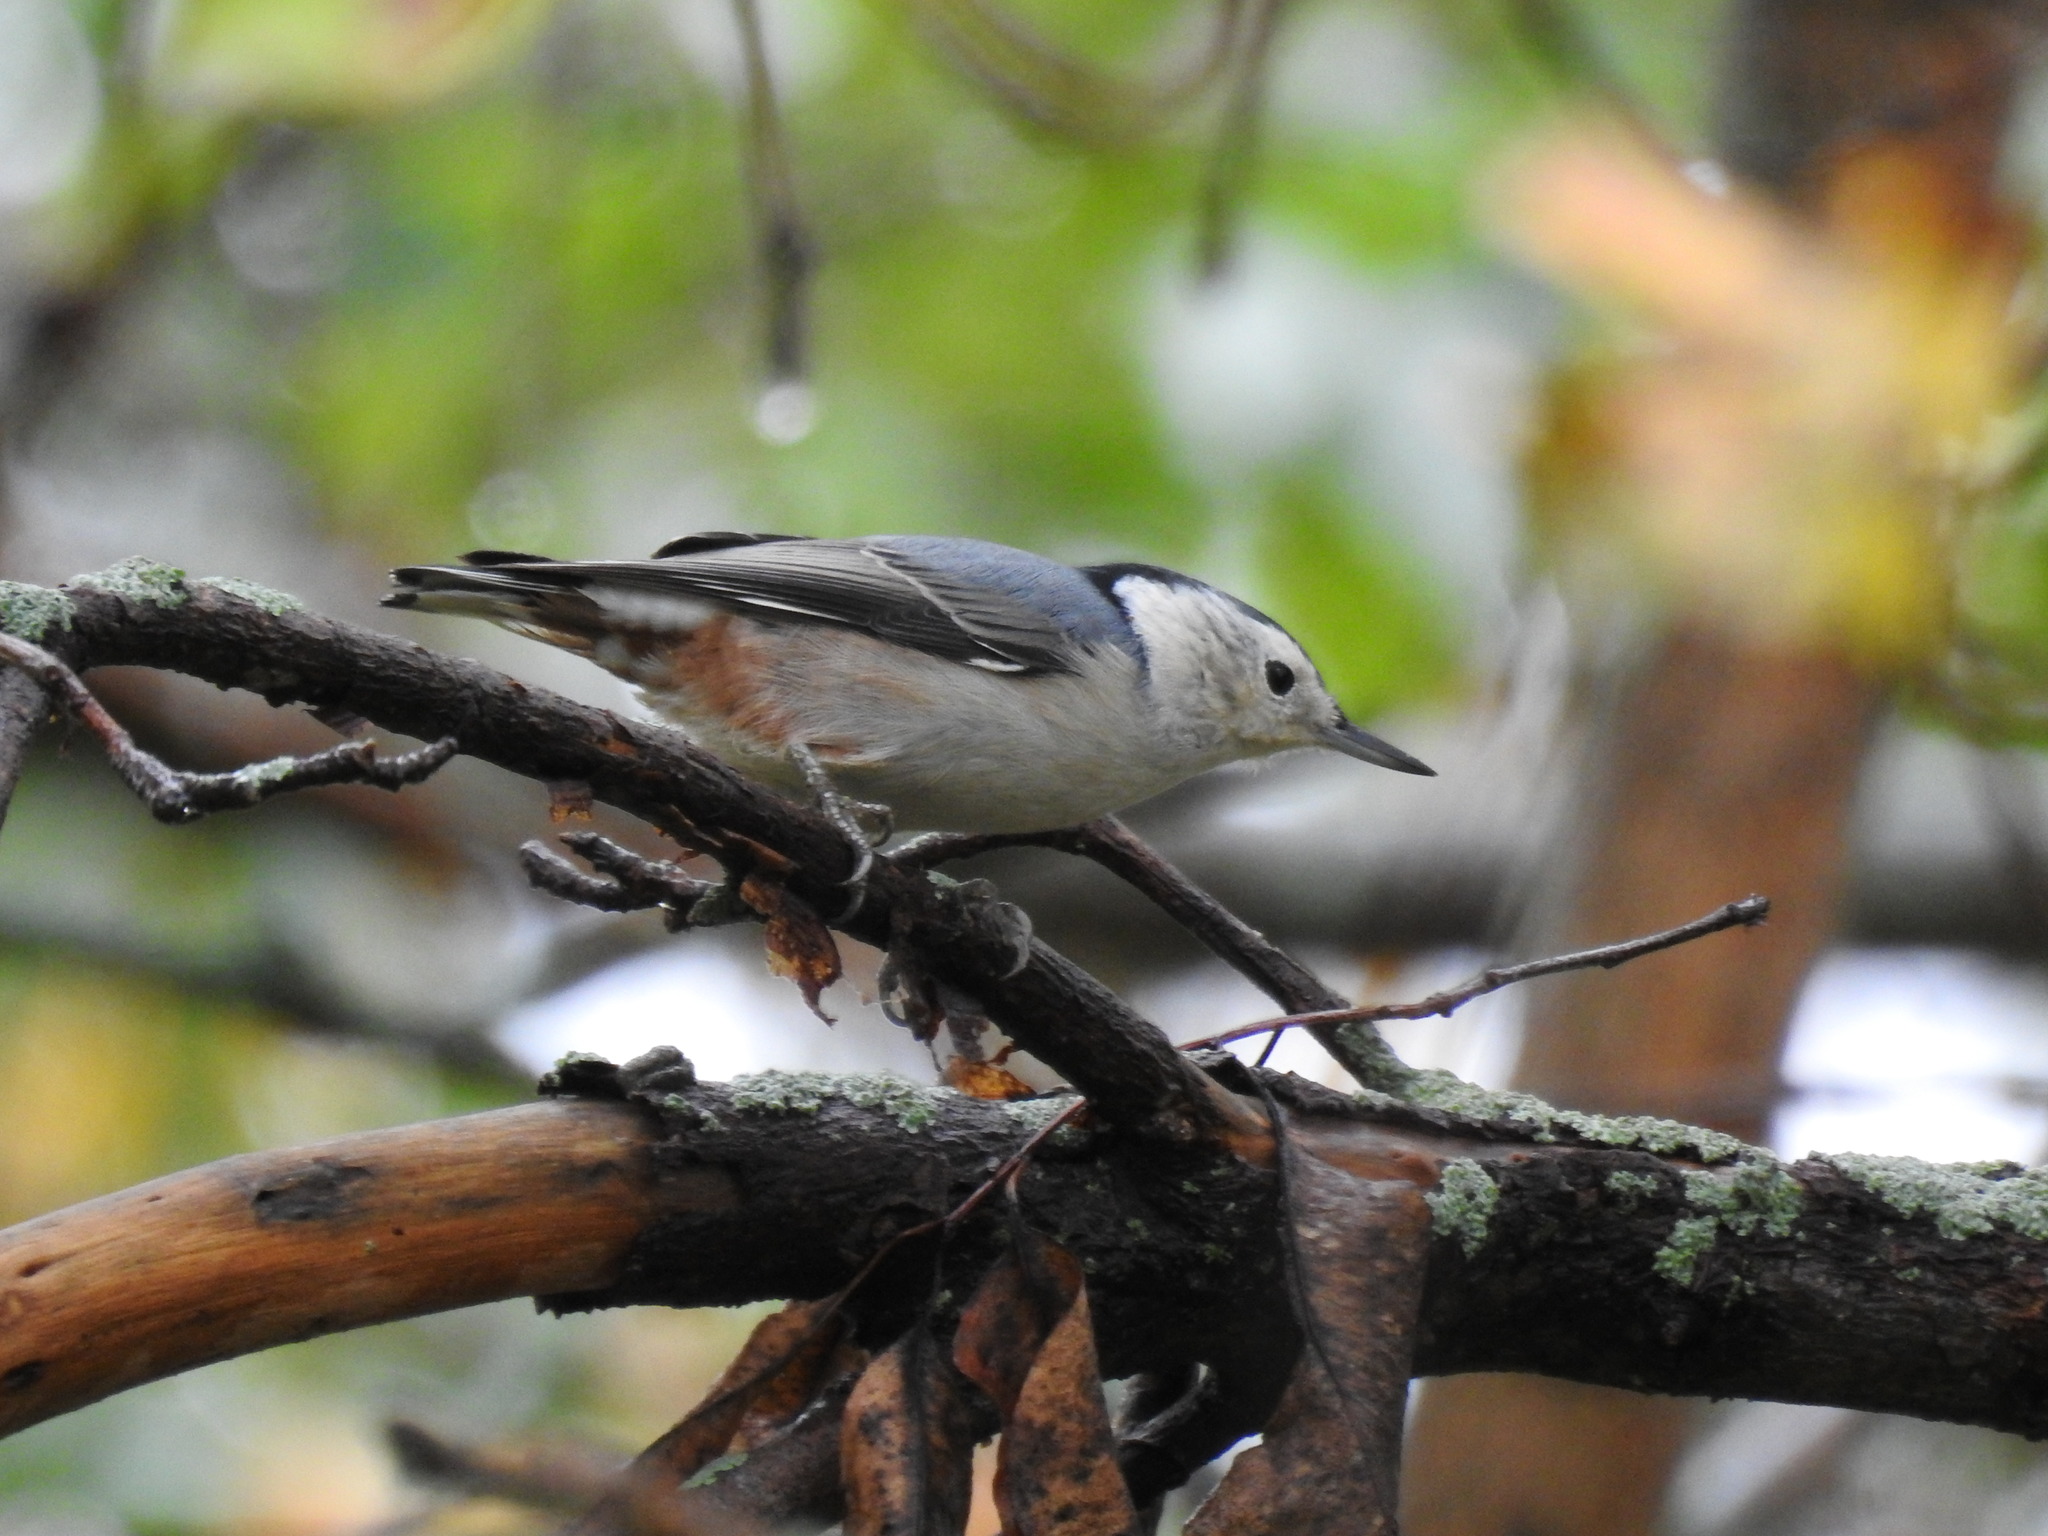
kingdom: Animalia
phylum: Chordata
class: Aves
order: Passeriformes
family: Sittidae
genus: Sitta
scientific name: Sitta carolinensis
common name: White-breasted nuthatch
